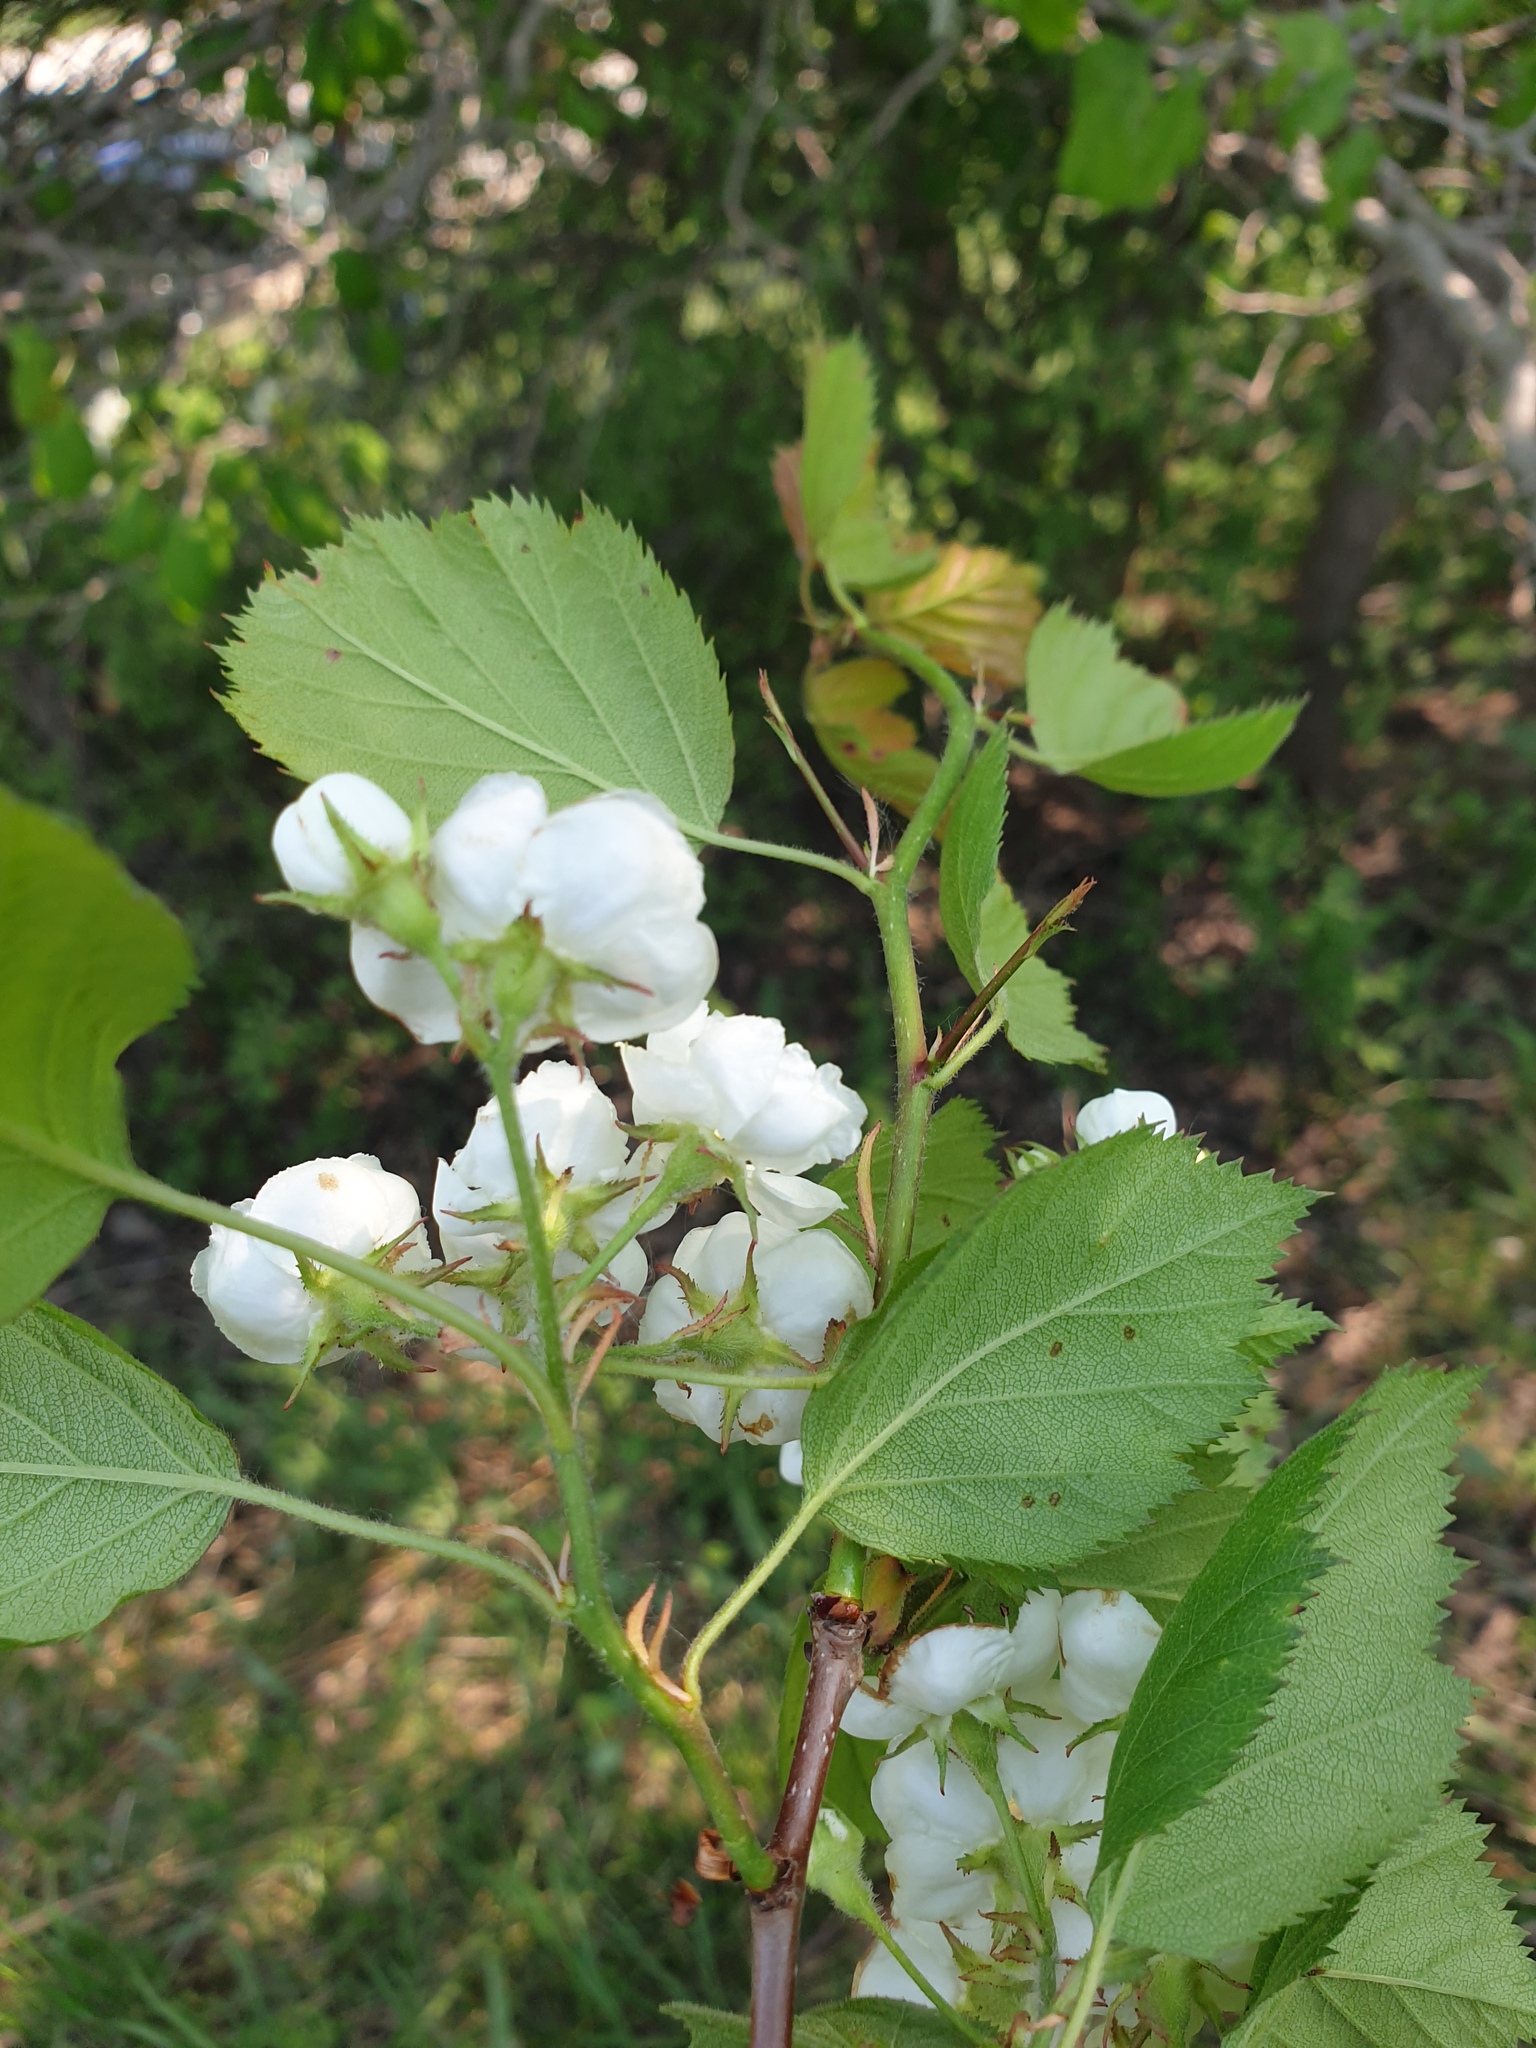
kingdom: Plantae
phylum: Tracheophyta
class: Magnoliopsida
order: Rosales
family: Rosaceae
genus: Crataegus
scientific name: Crataegus coccinea
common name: Scarlet hawthorn
